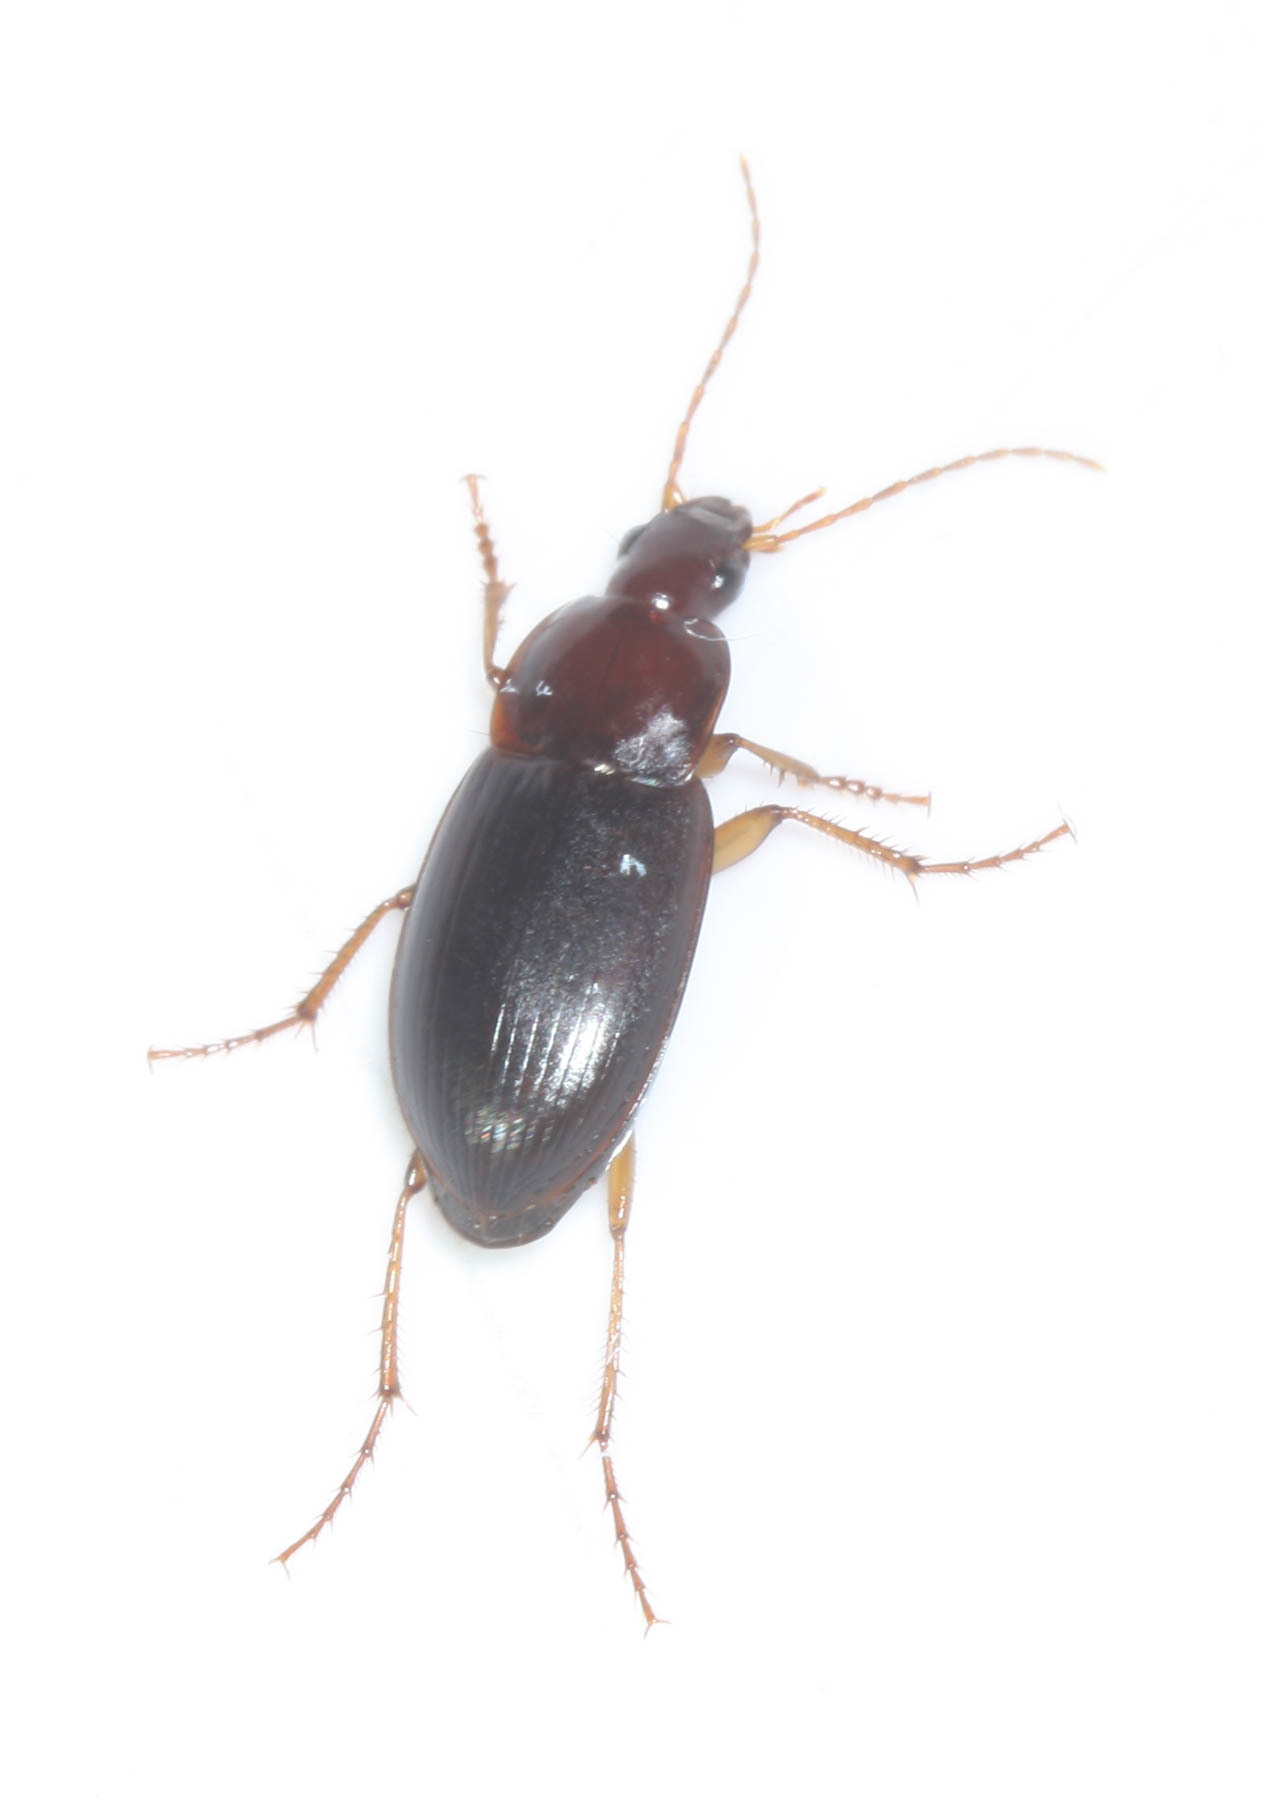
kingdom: Animalia
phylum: Arthropoda
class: Insecta
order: Coleoptera
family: Carabidae
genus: Calathus
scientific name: Calathus ruficollis
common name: Red-collared harp ground beetle
